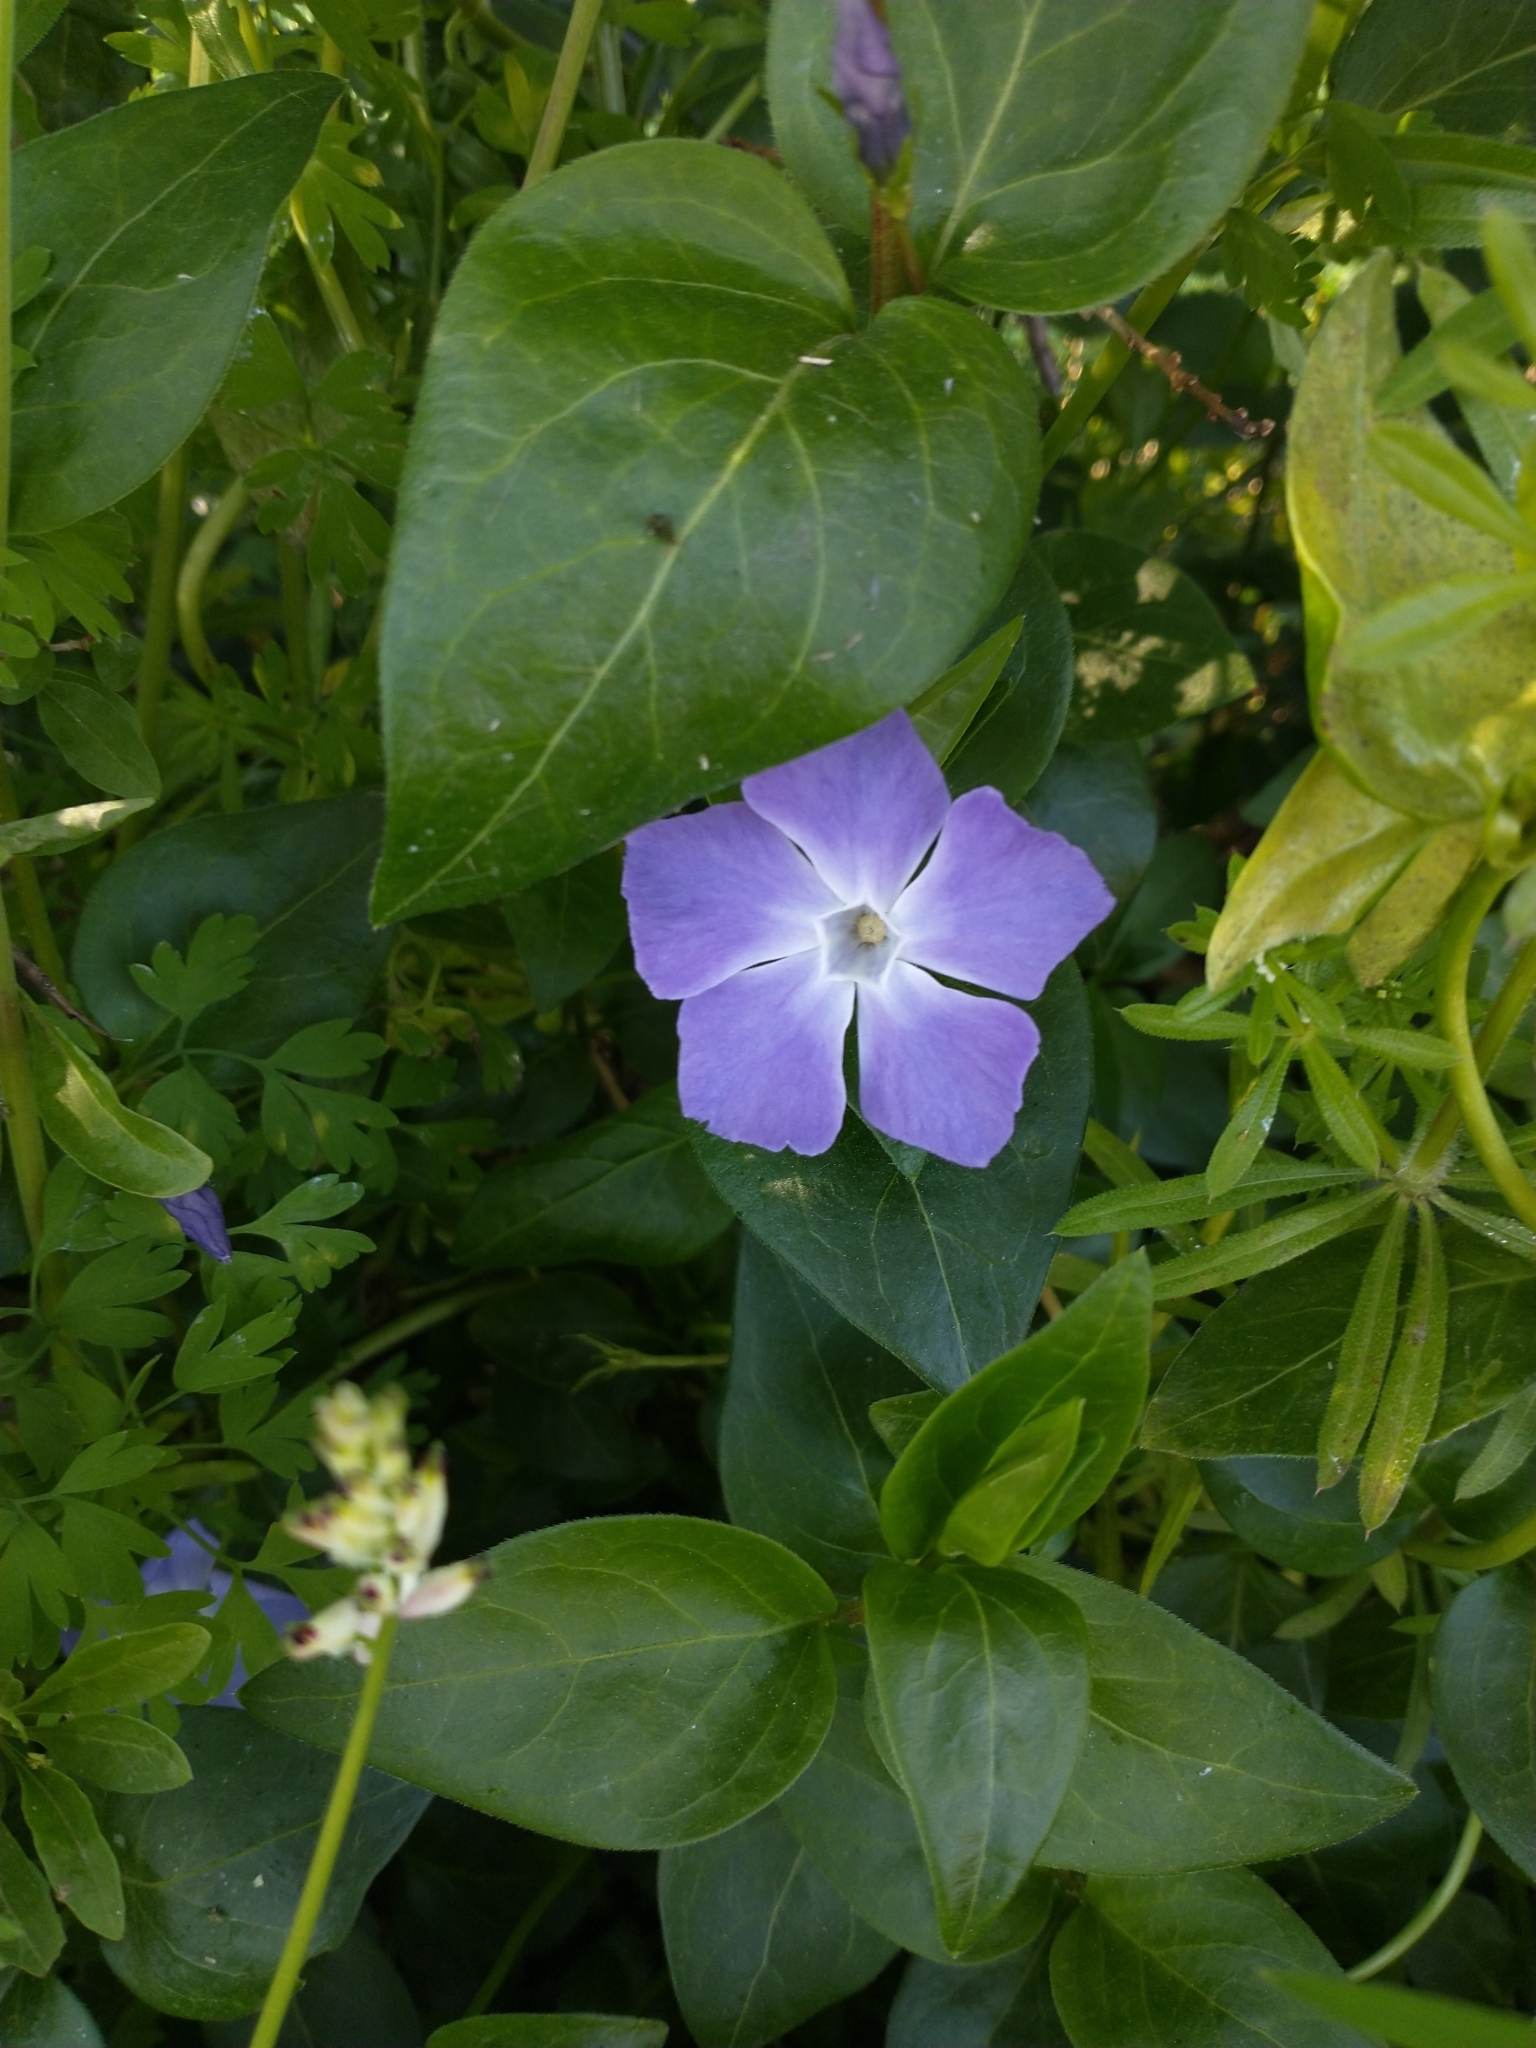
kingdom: Plantae
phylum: Tracheophyta
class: Magnoliopsida
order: Gentianales
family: Apocynaceae
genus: Vinca
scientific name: Vinca major
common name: Greater periwinkle
